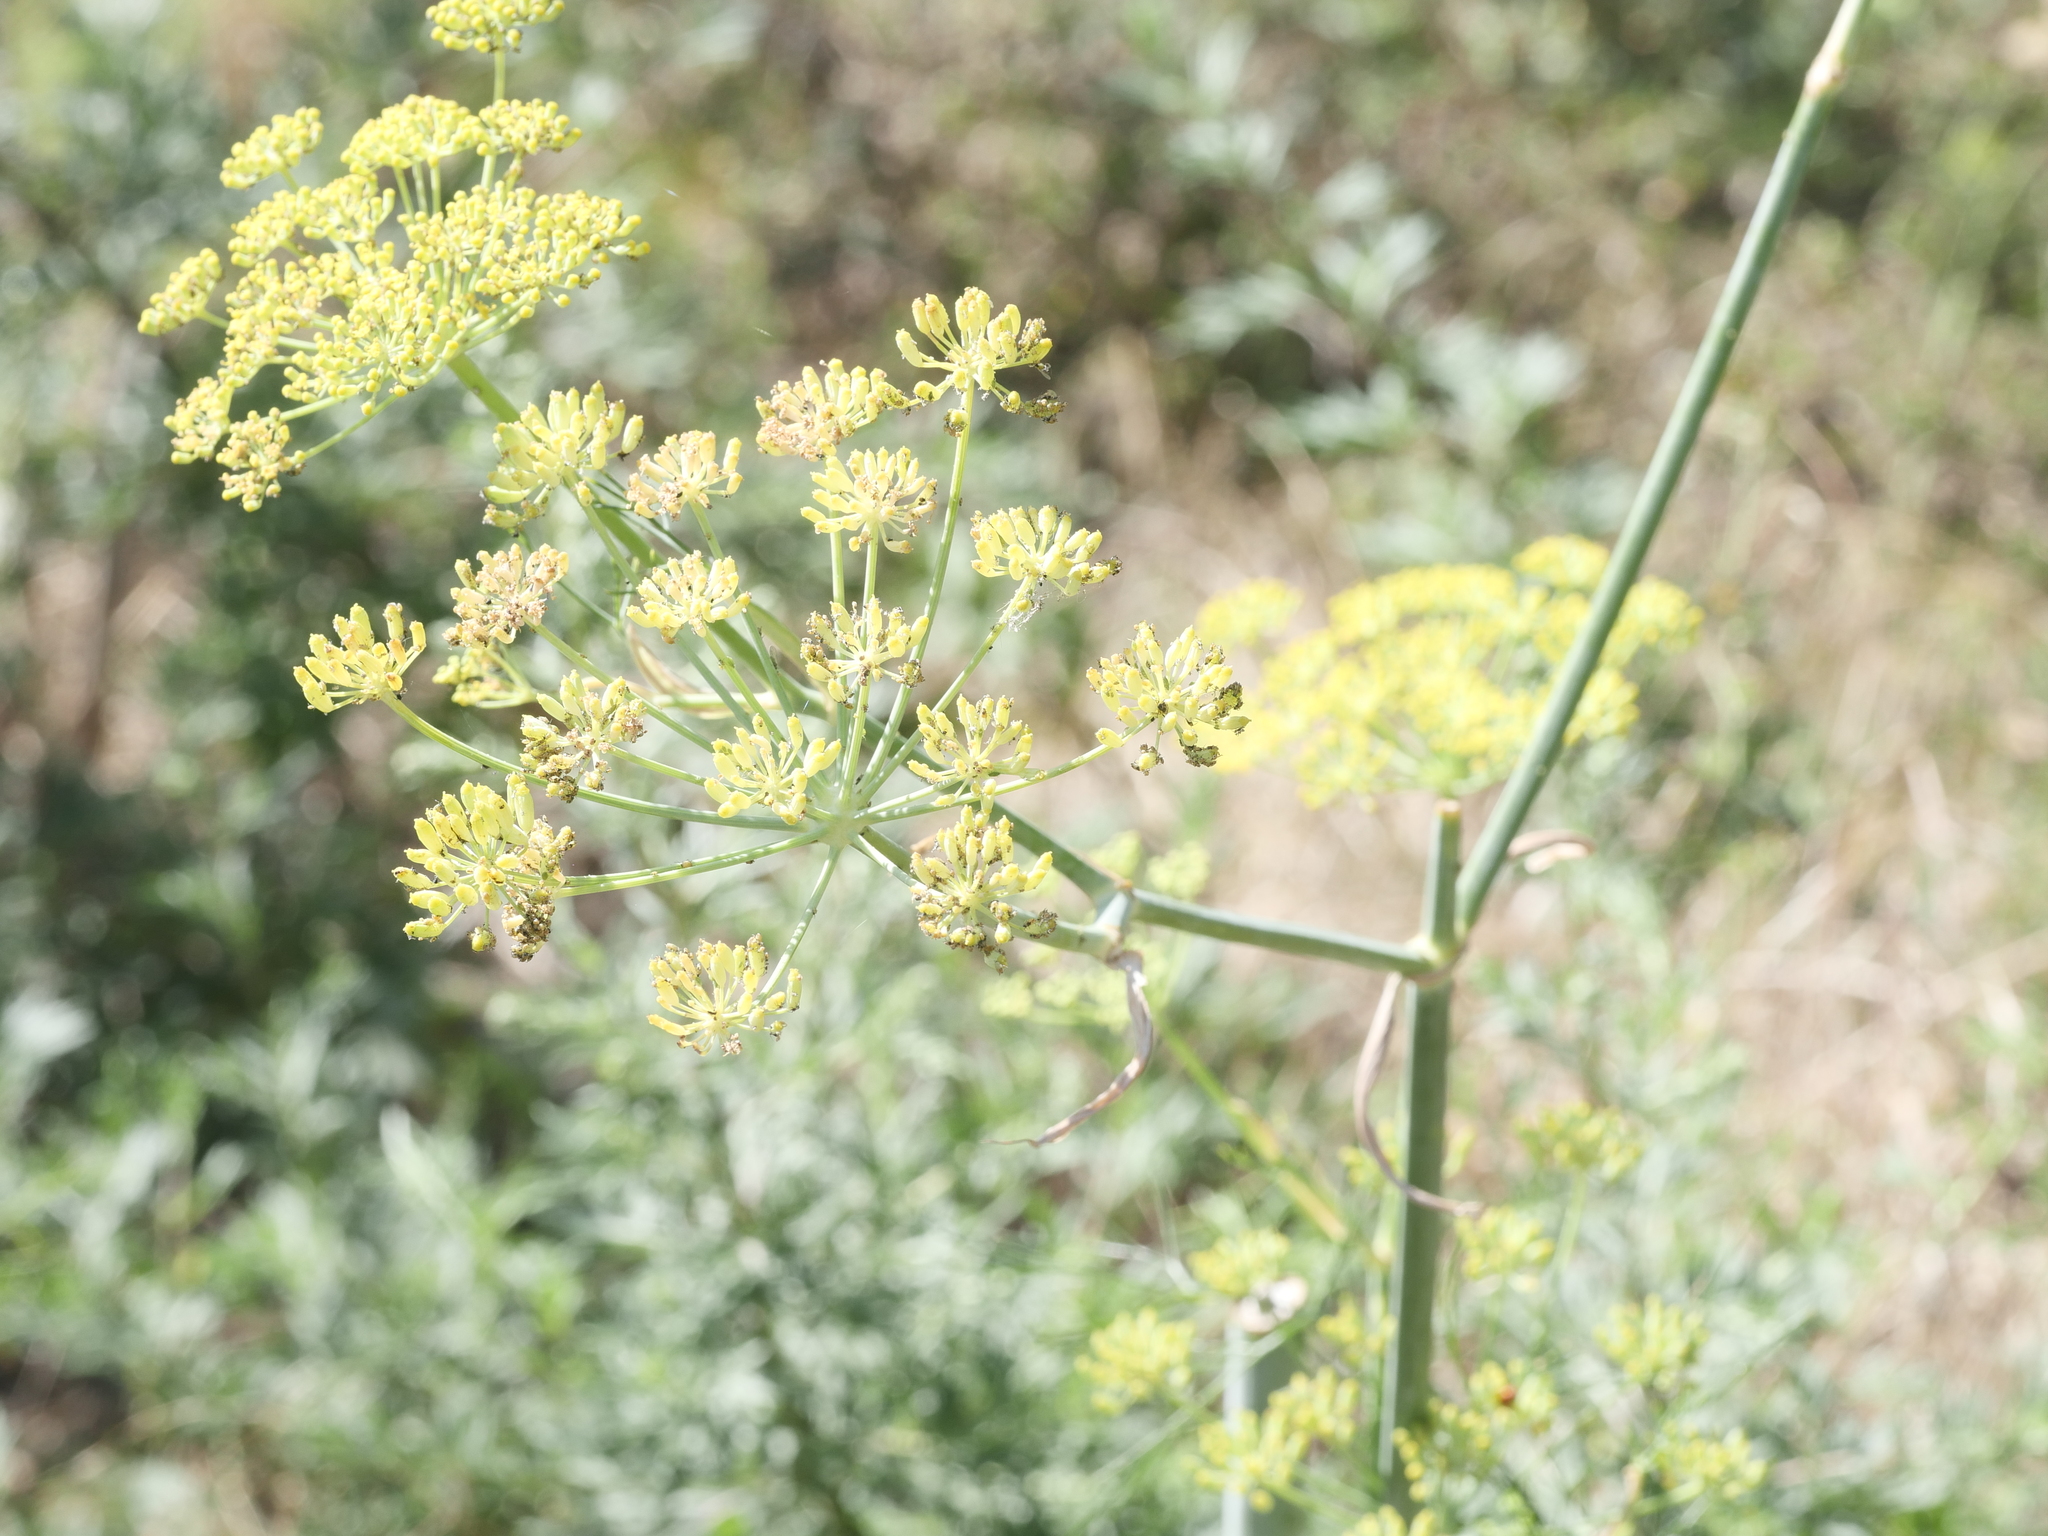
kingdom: Plantae
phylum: Tracheophyta
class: Magnoliopsida
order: Apiales
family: Apiaceae
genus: Foeniculum
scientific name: Foeniculum vulgare
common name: Fennel
